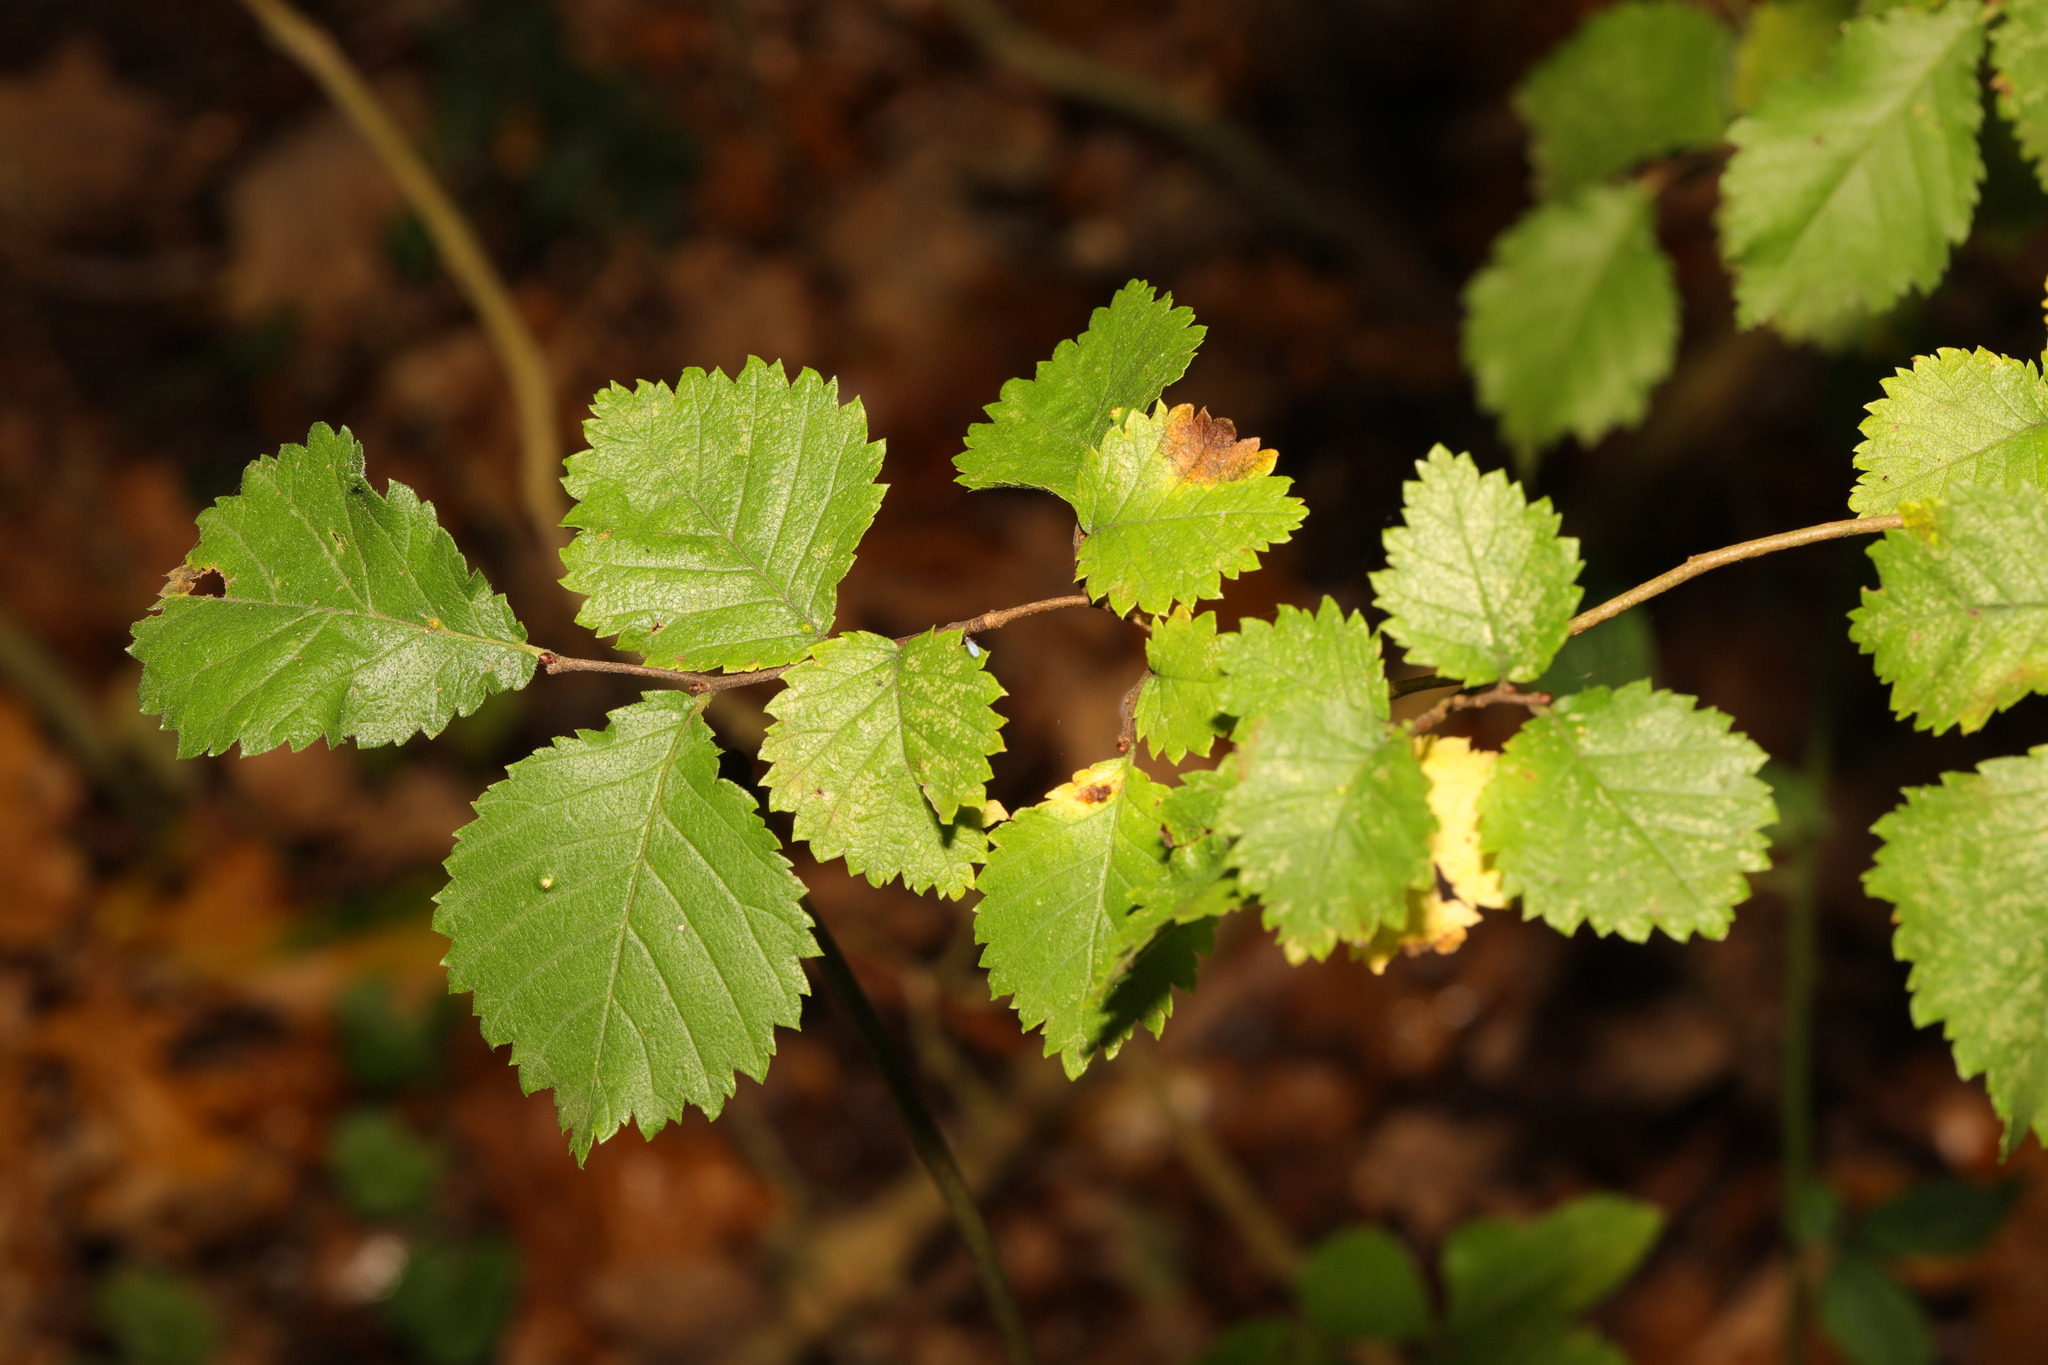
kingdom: Plantae
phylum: Tracheophyta
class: Magnoliopsida
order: Rosales
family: Ulmaceae
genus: Ulmus
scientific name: Ulmus minor
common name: Small-leaved elm
